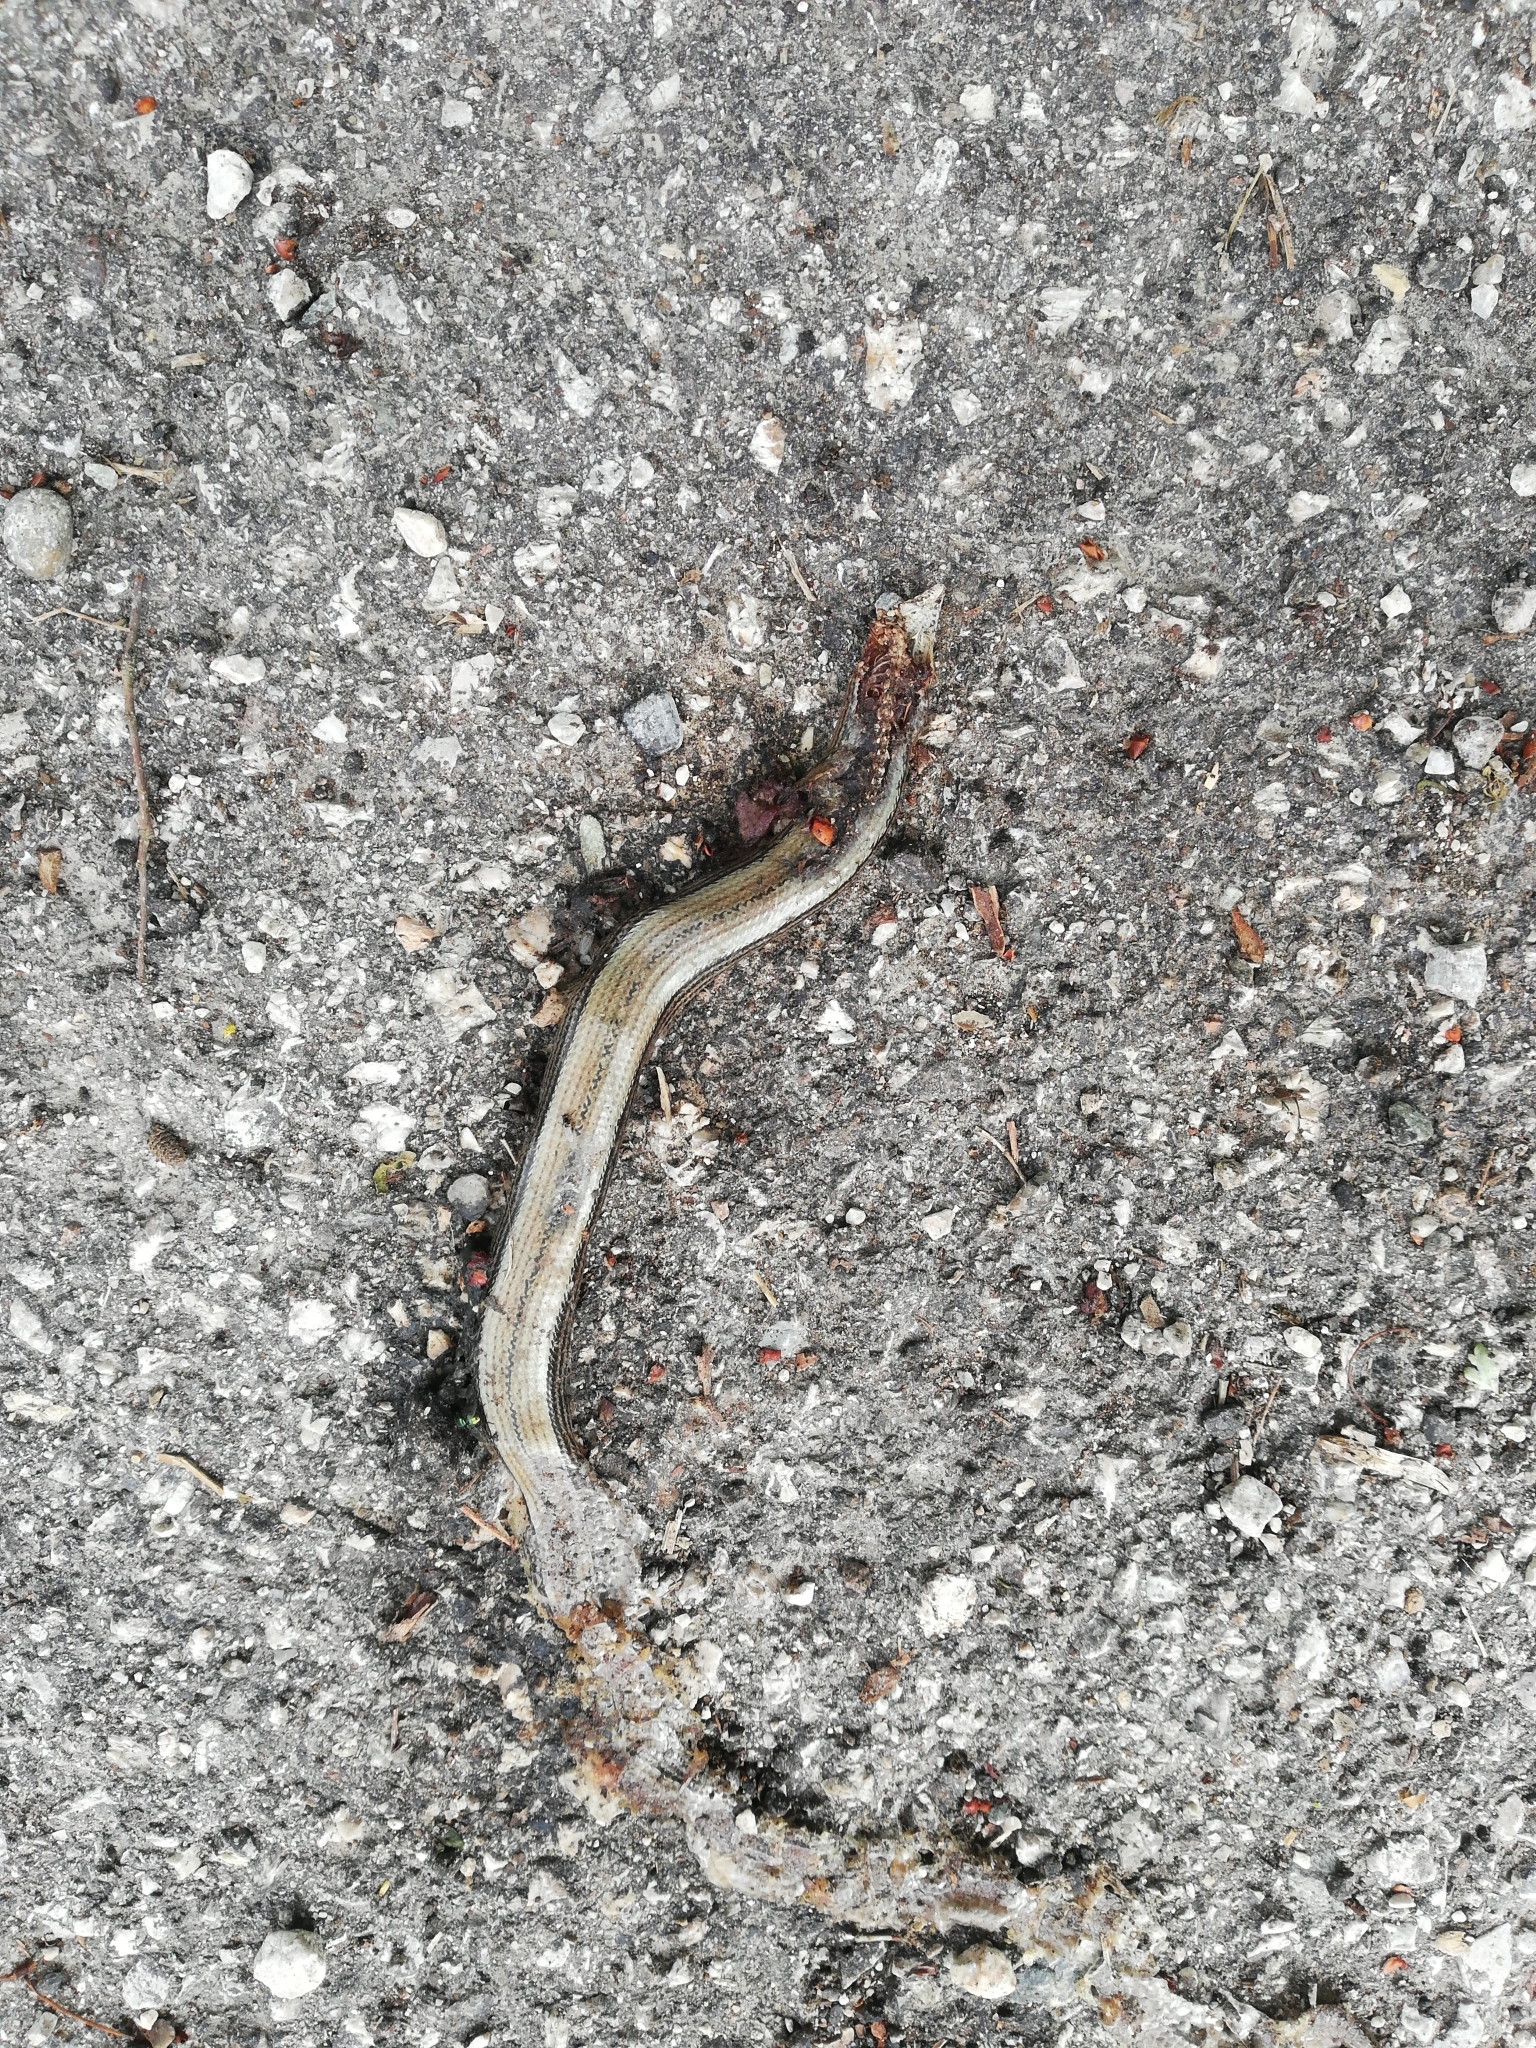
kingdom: Animalia
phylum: Chordata
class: Squamata
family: Anguidae
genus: Anguis
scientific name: Anguis veronensis
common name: Italian slow worm
